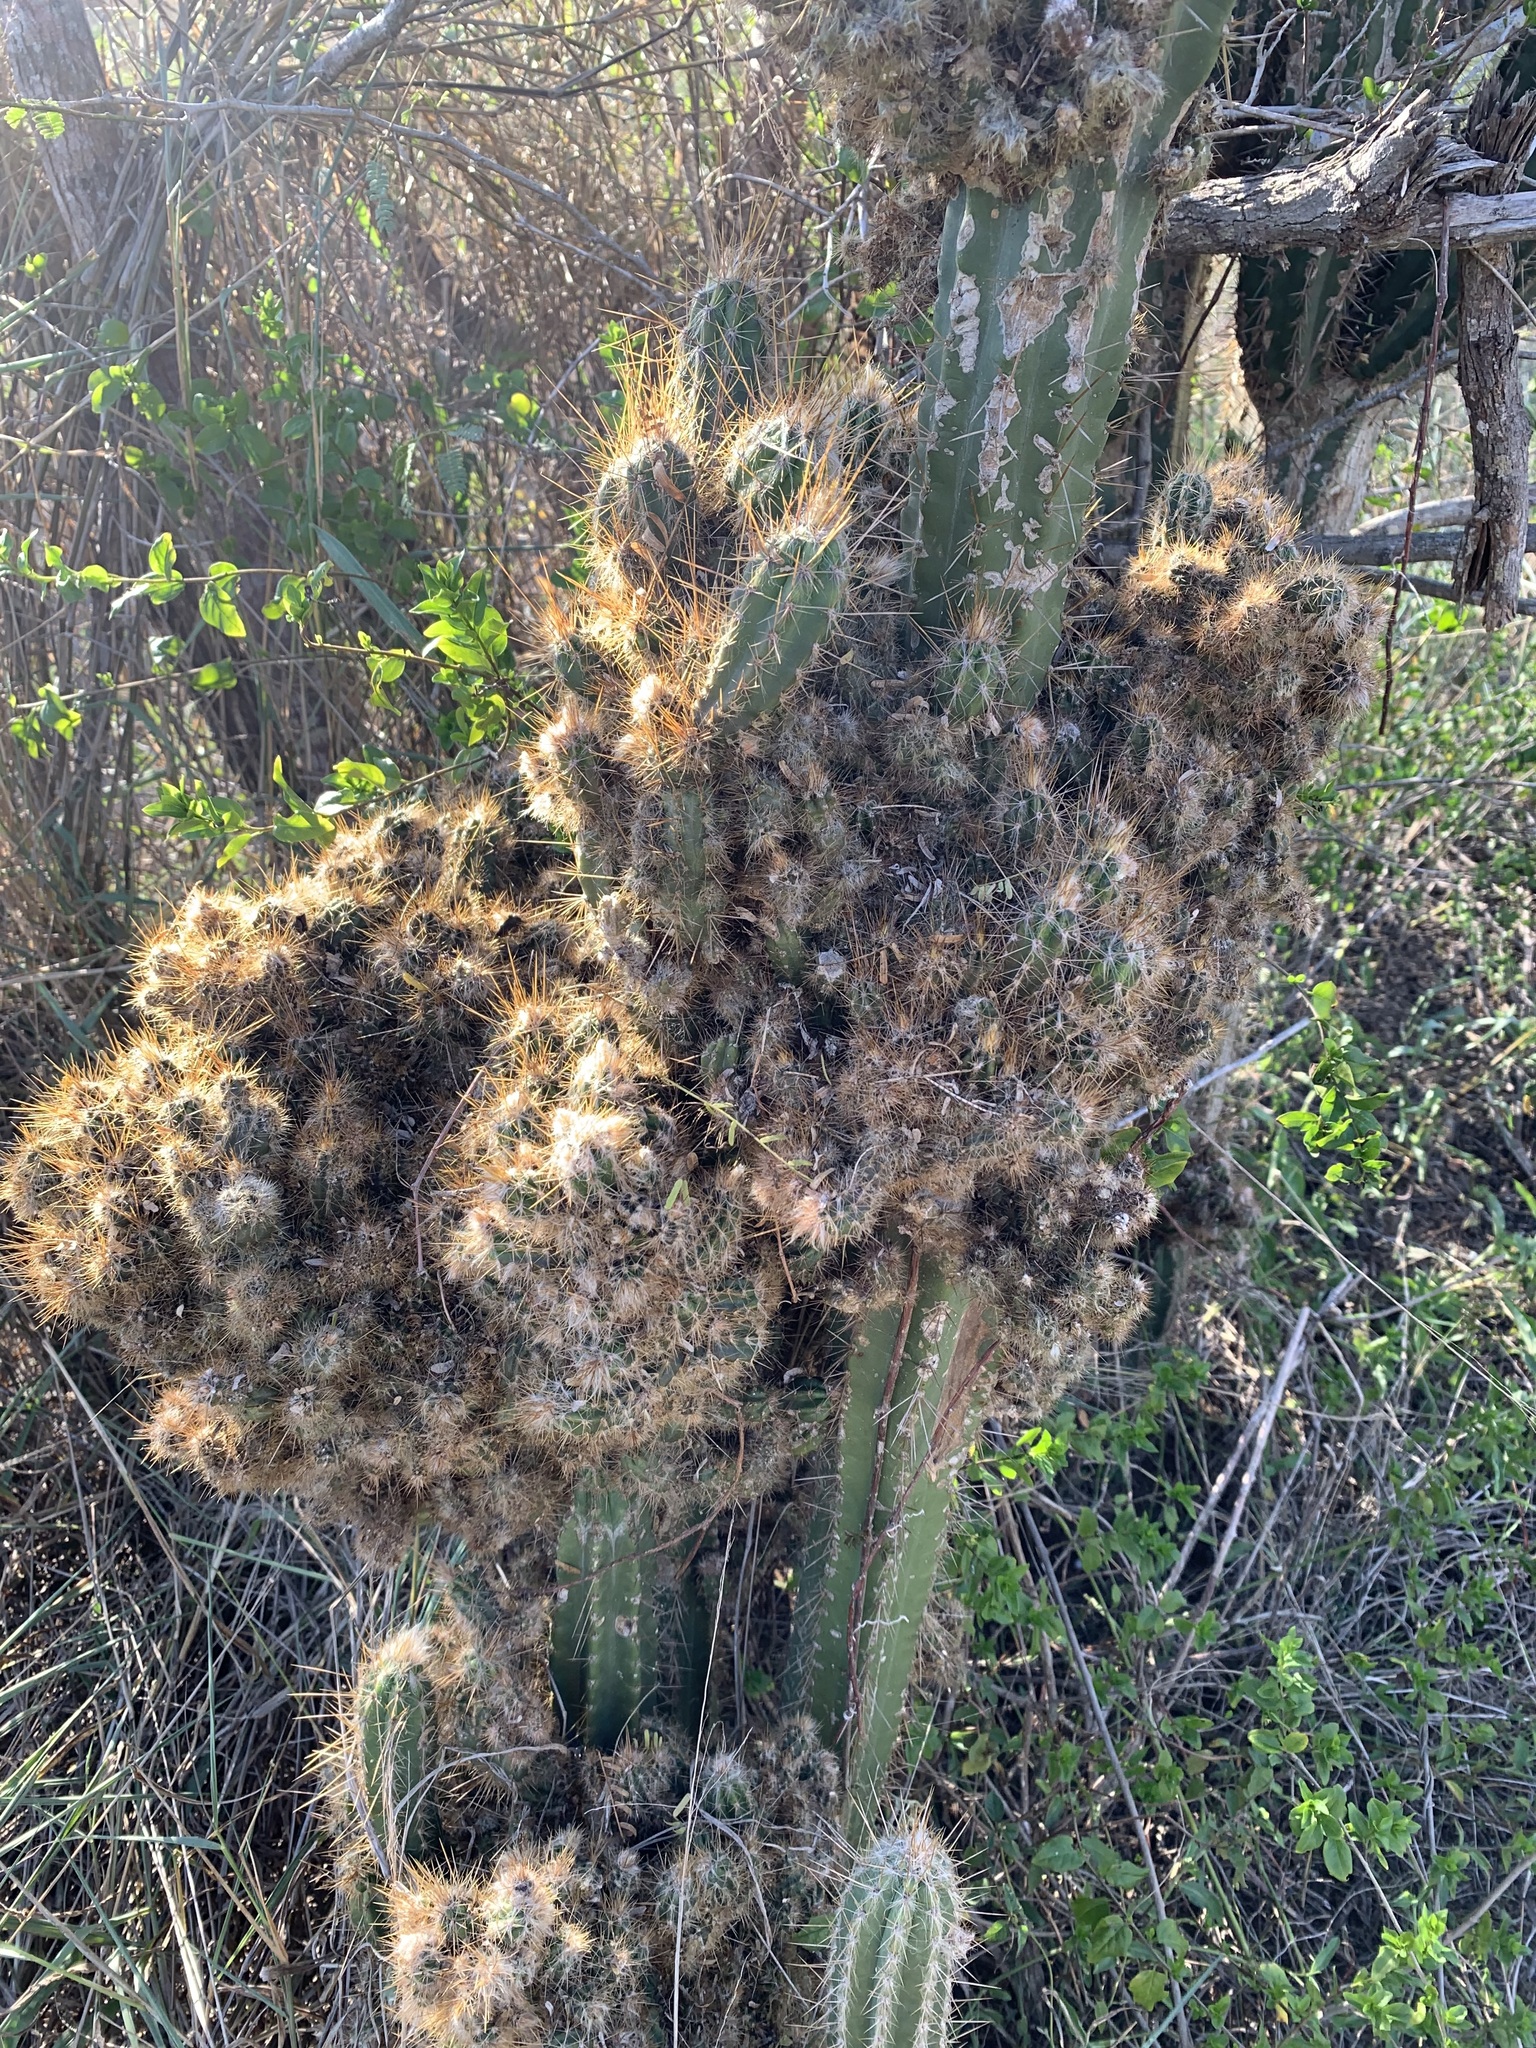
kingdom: Plantae
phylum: Tracheophyta
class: Magnoliopsida
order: Caryophyllales
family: Cactaceae
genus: Pilosocereus
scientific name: Pilosocereus armatus
